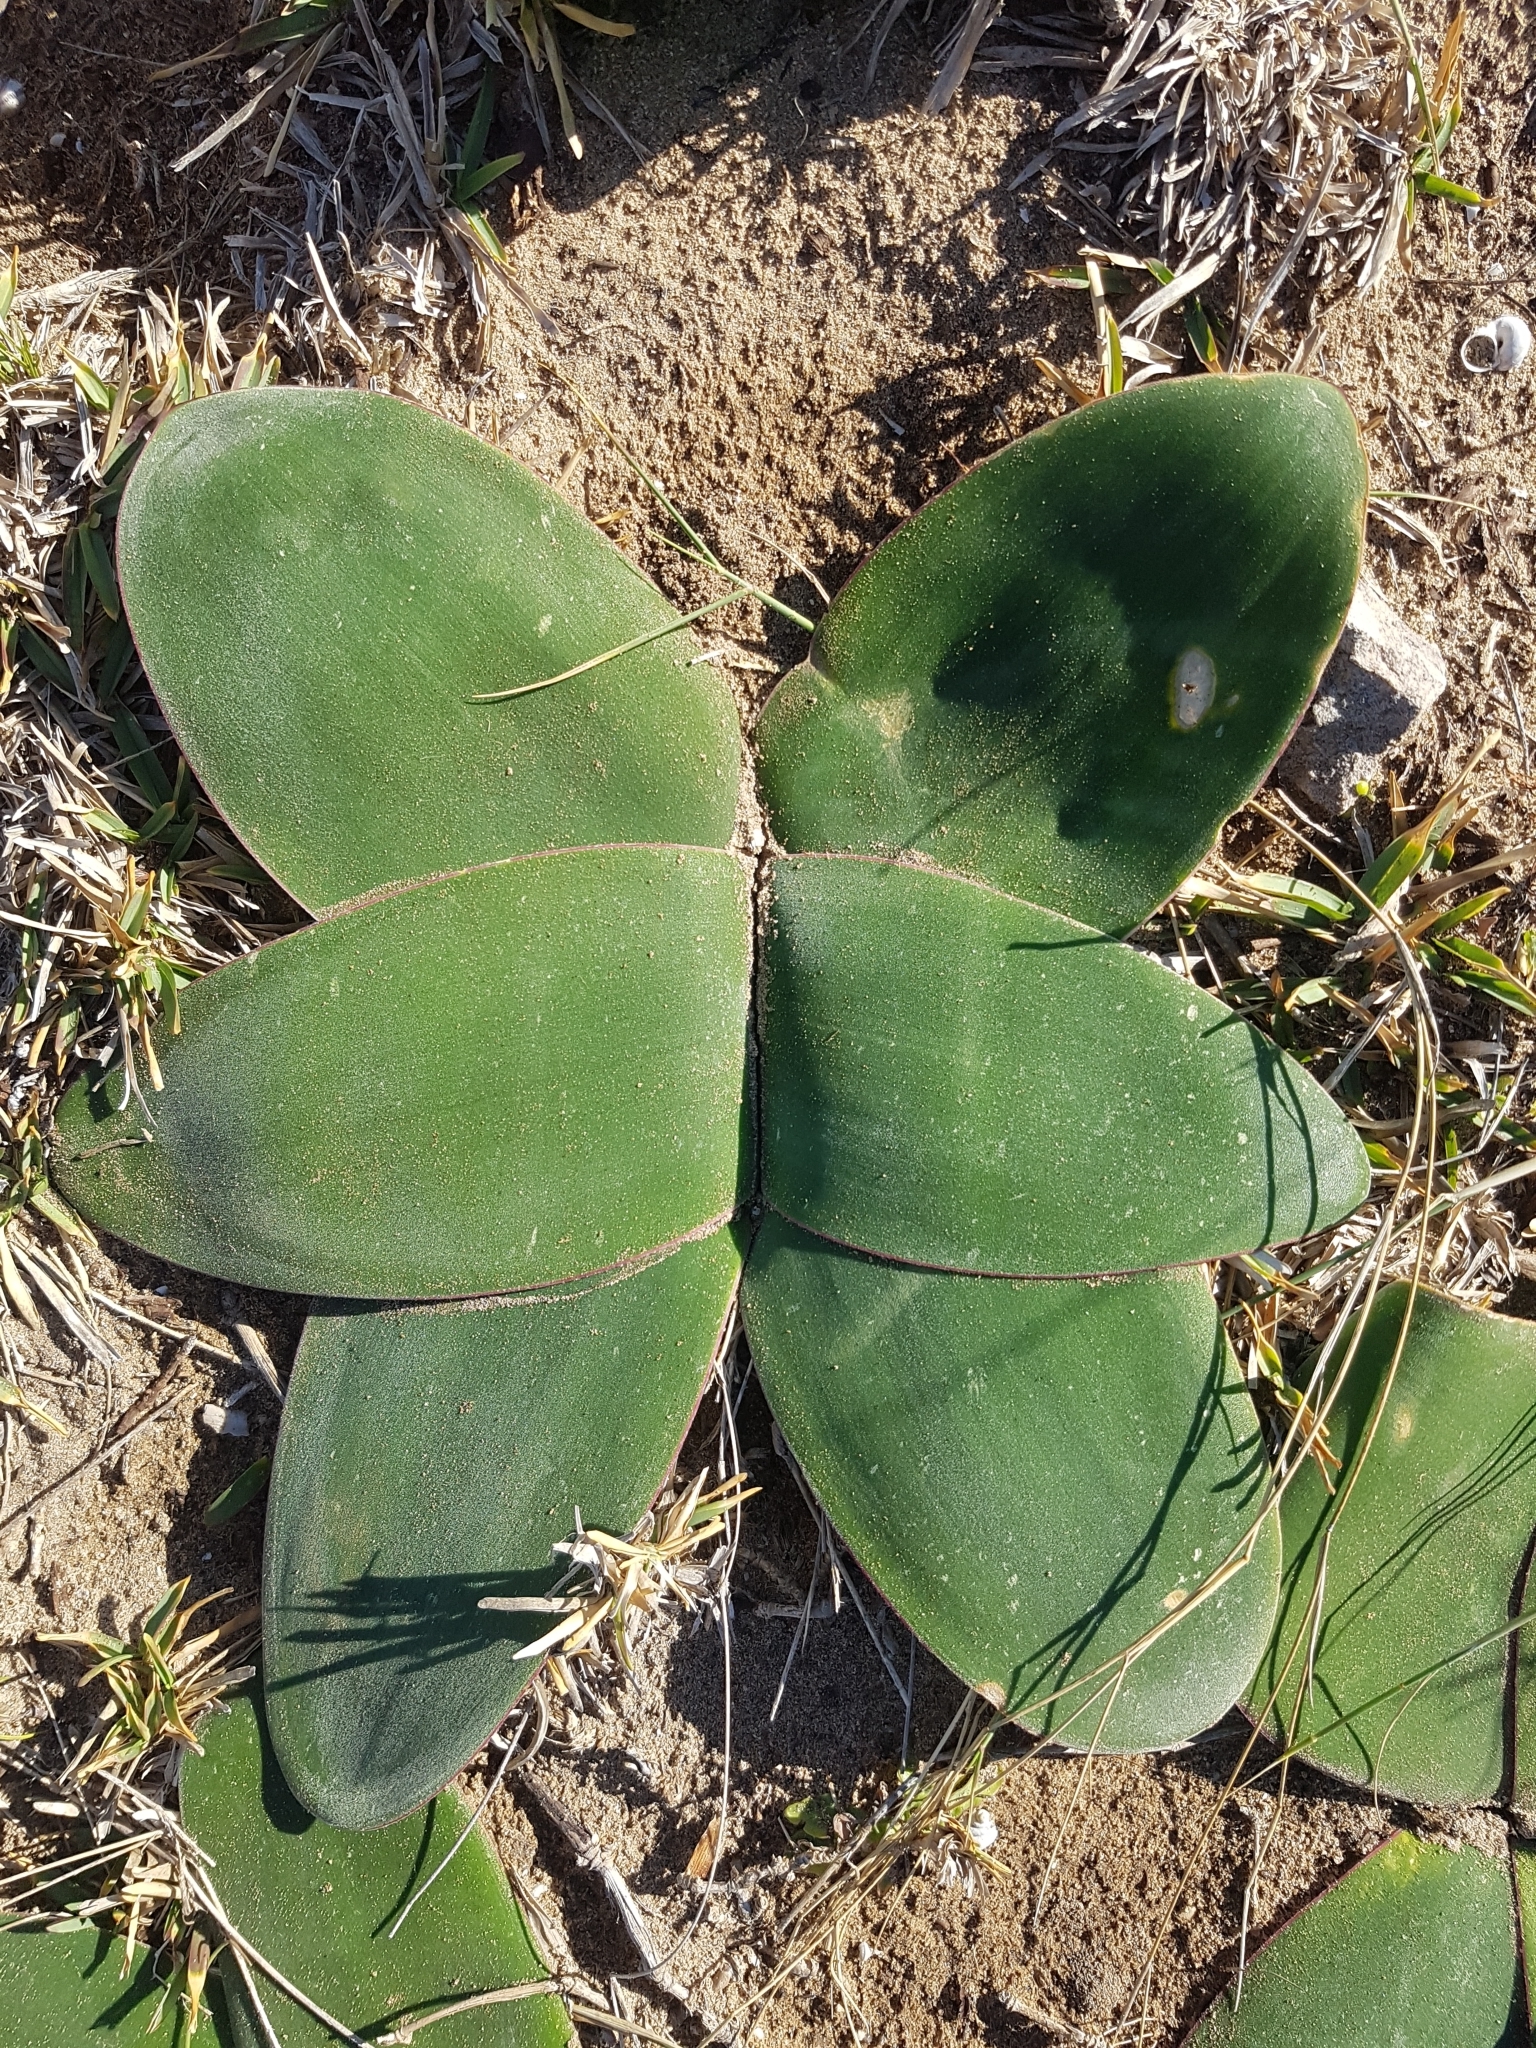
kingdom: Plantae
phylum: Tracheophyta
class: Liliopsida
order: Asparagales
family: Amaryllidaceae
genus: Brunsvigia
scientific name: Brunsvigia orientalis
